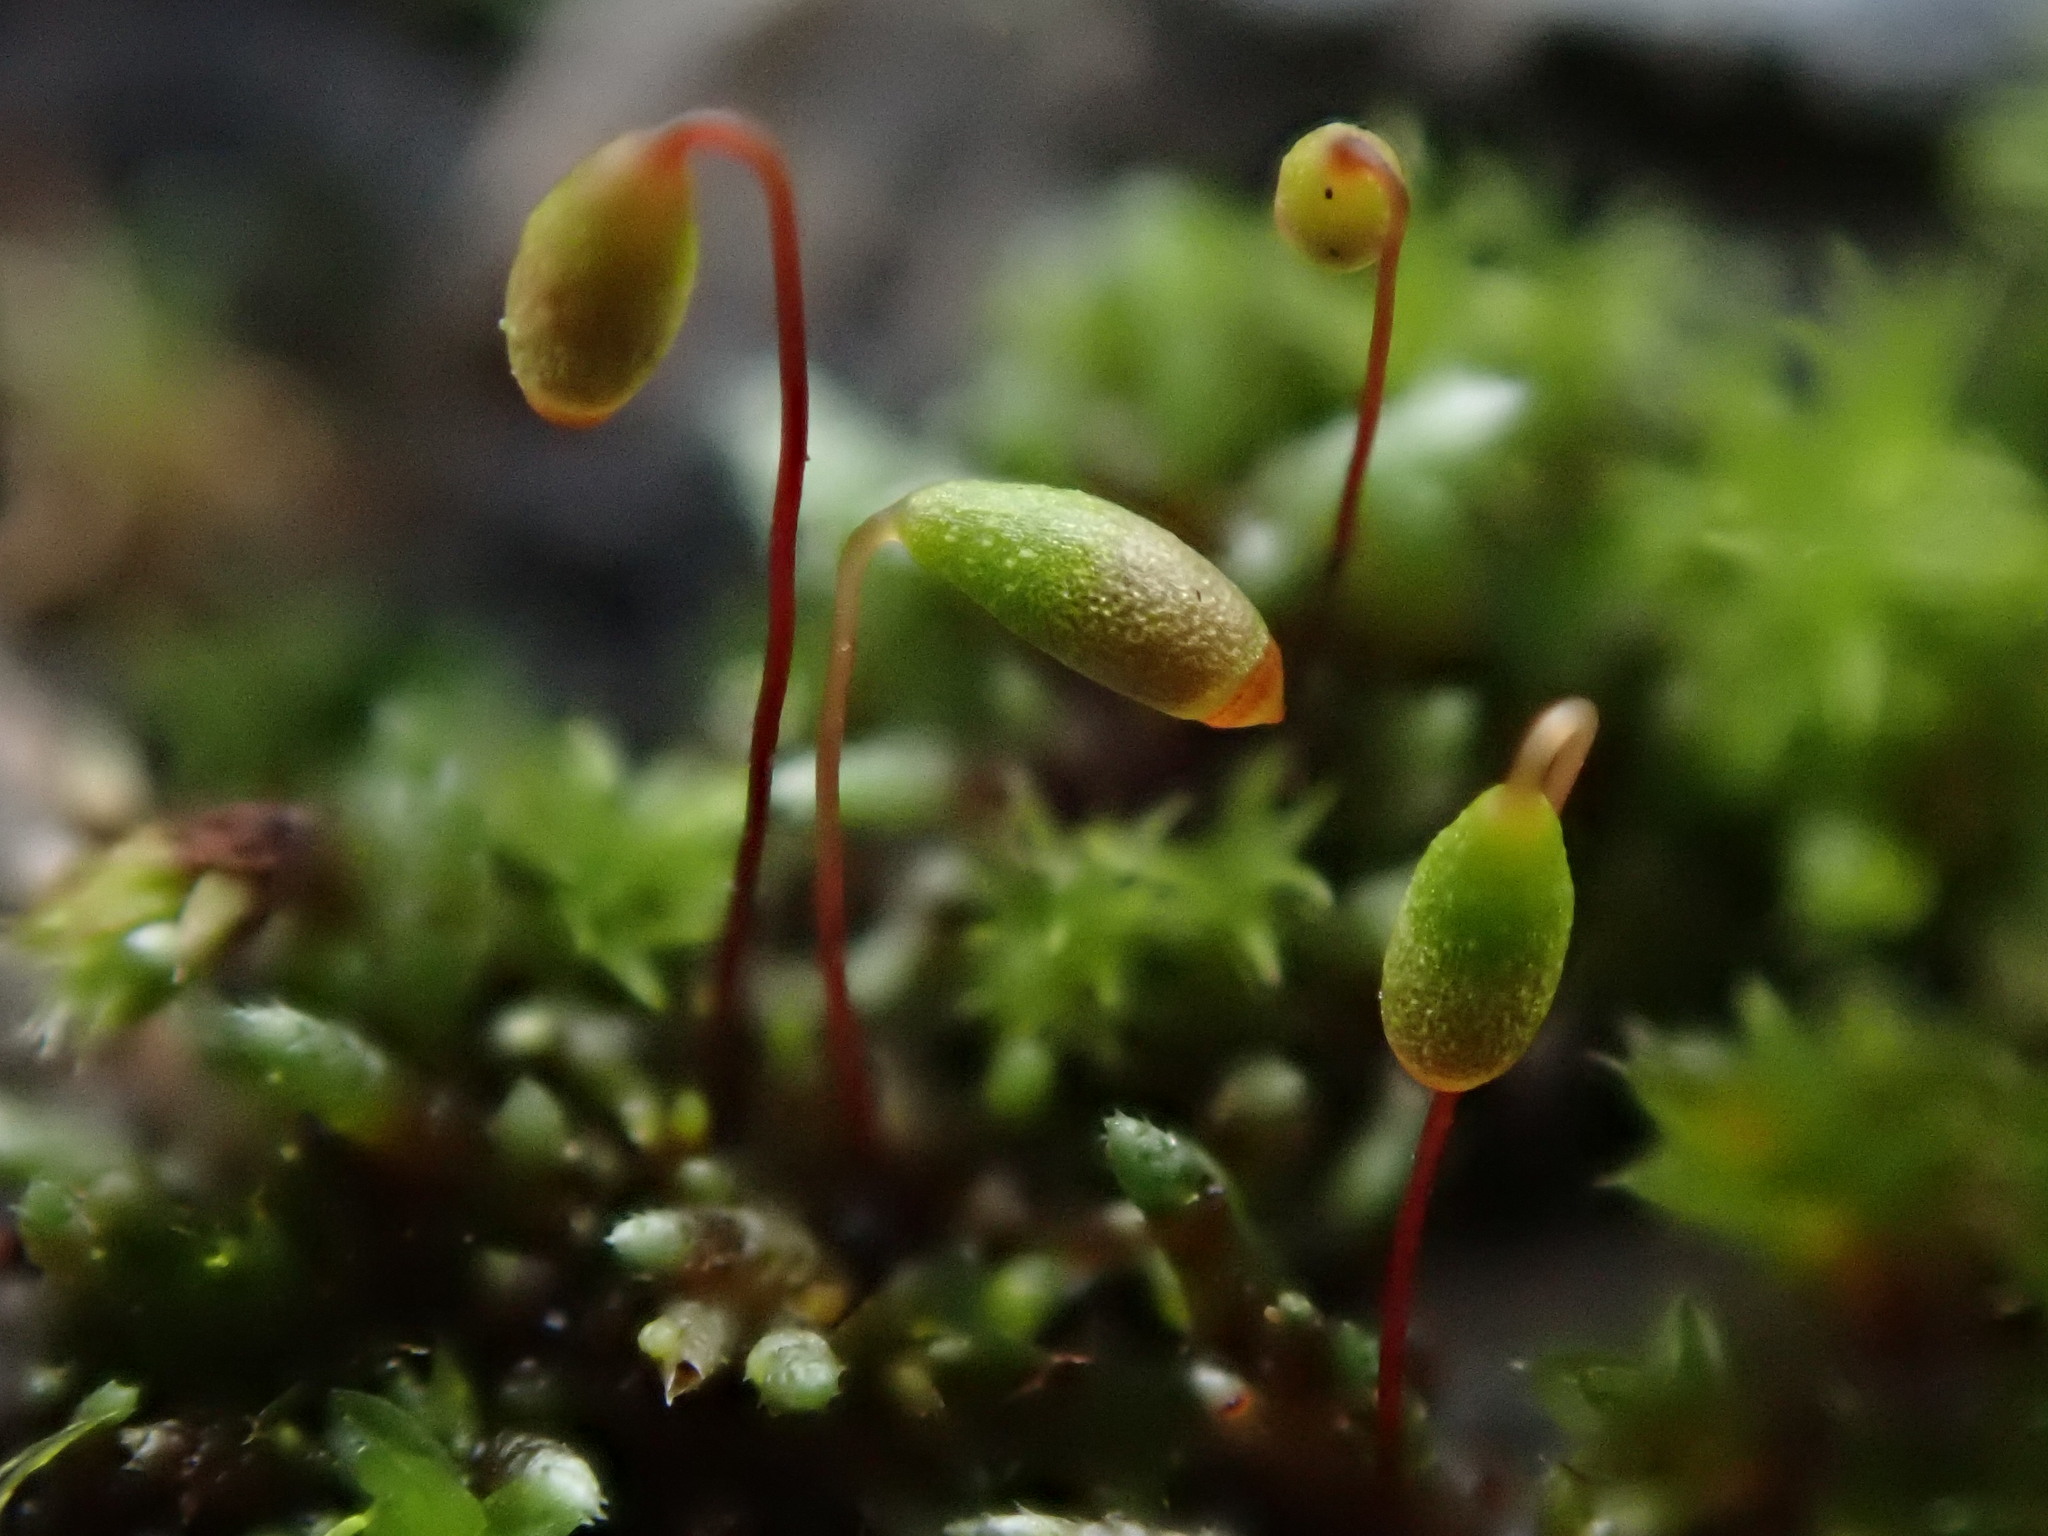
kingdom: Plantae
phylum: Bryophyta
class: Bryopsida
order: Bryales
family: Bryaceae
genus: Bryum
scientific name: Bryum argenteum
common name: Silver-moss
